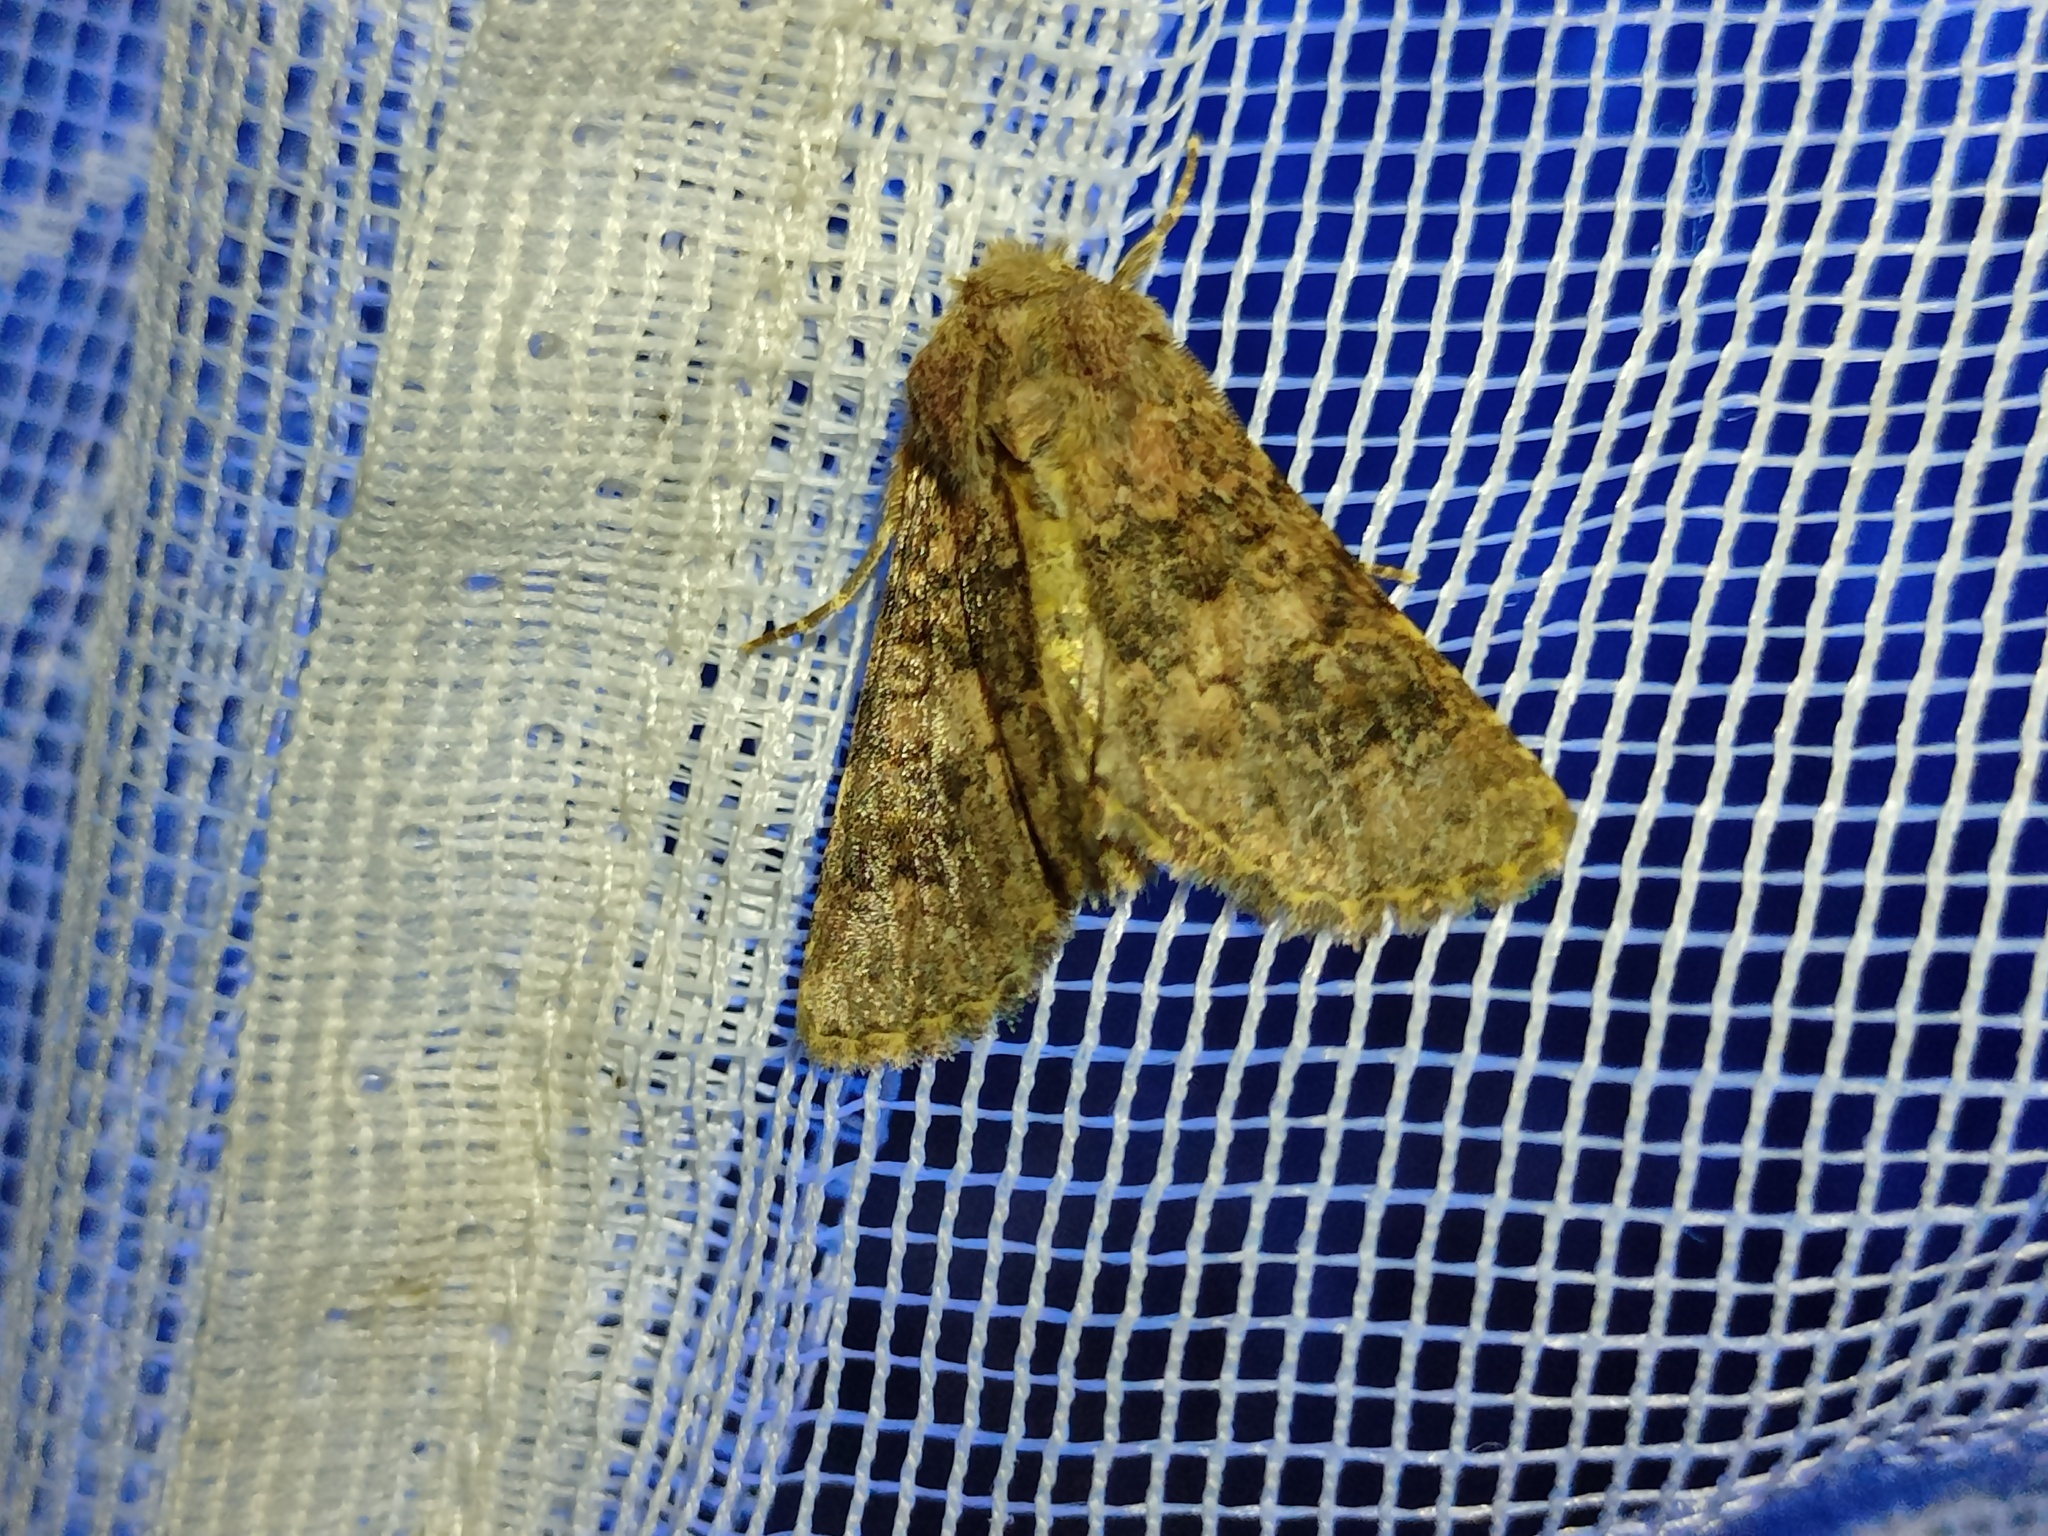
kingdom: Animalia
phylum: Arthropoda
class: Insecta
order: Lepidoptera
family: Noctuidae
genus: Polymixis
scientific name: Polymixis bacheri
